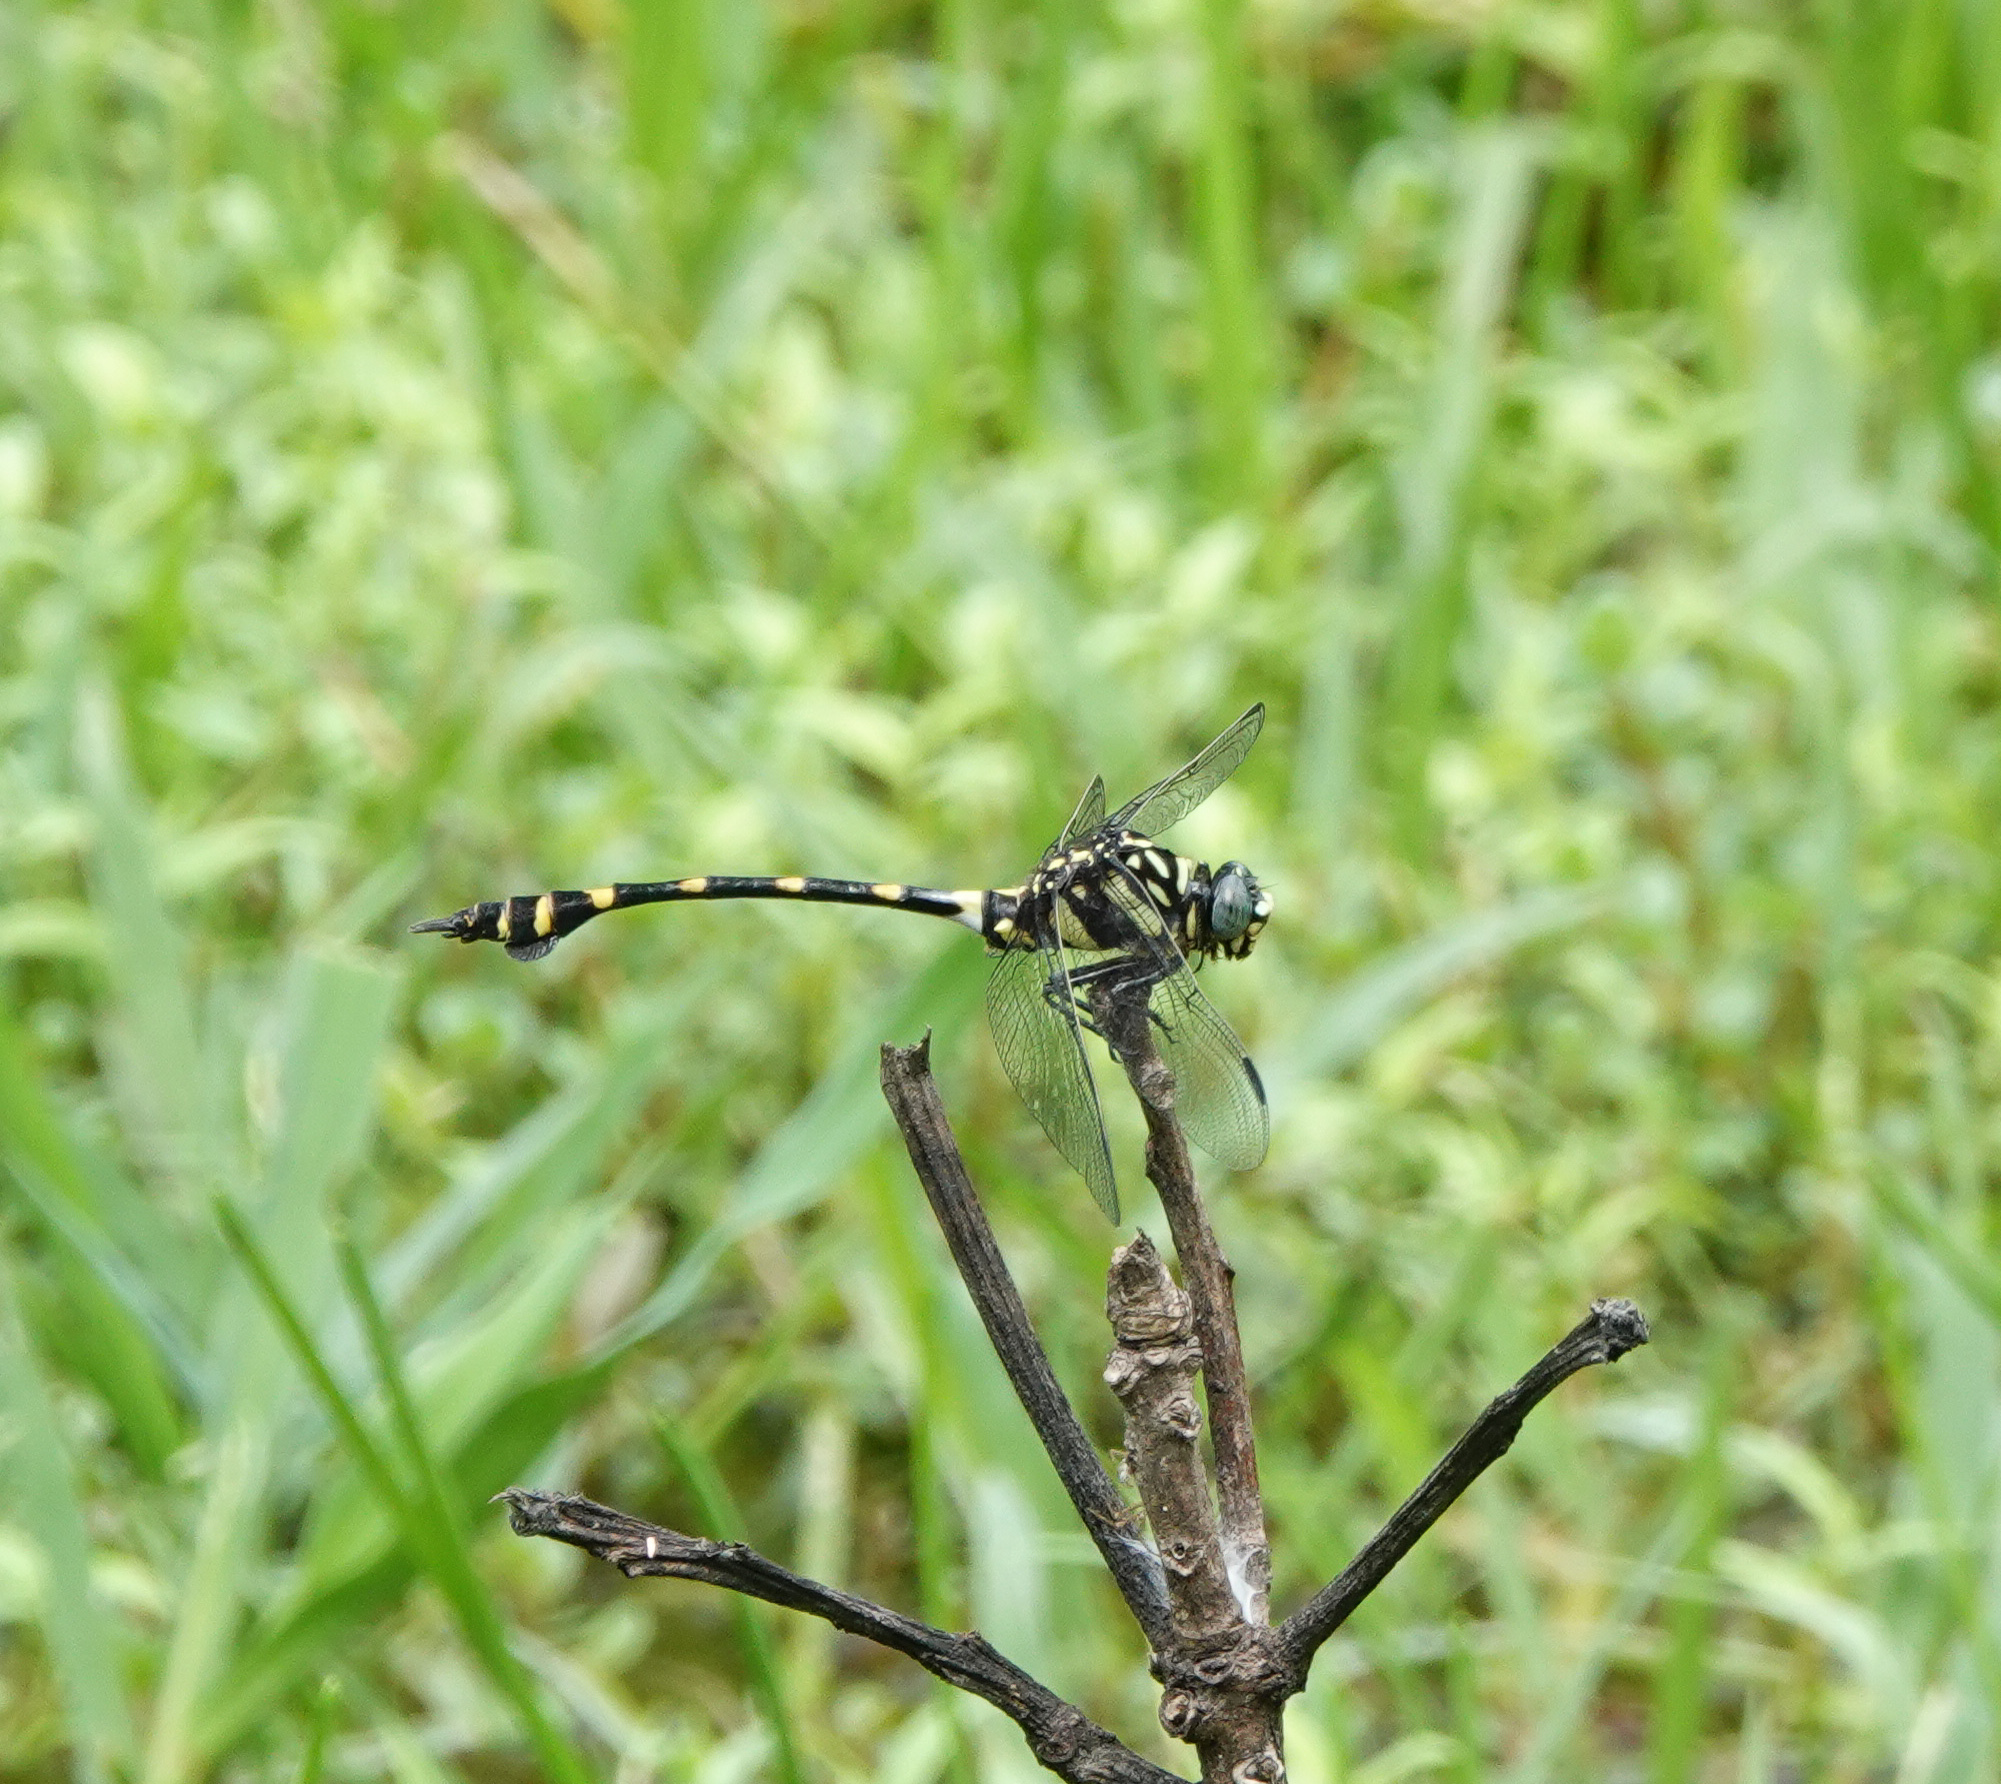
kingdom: Animalia
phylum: Arthropoda
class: Insecta
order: Odonata
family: Gomphidae
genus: Ictinogomphus
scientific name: Ictinogomphus rapax
